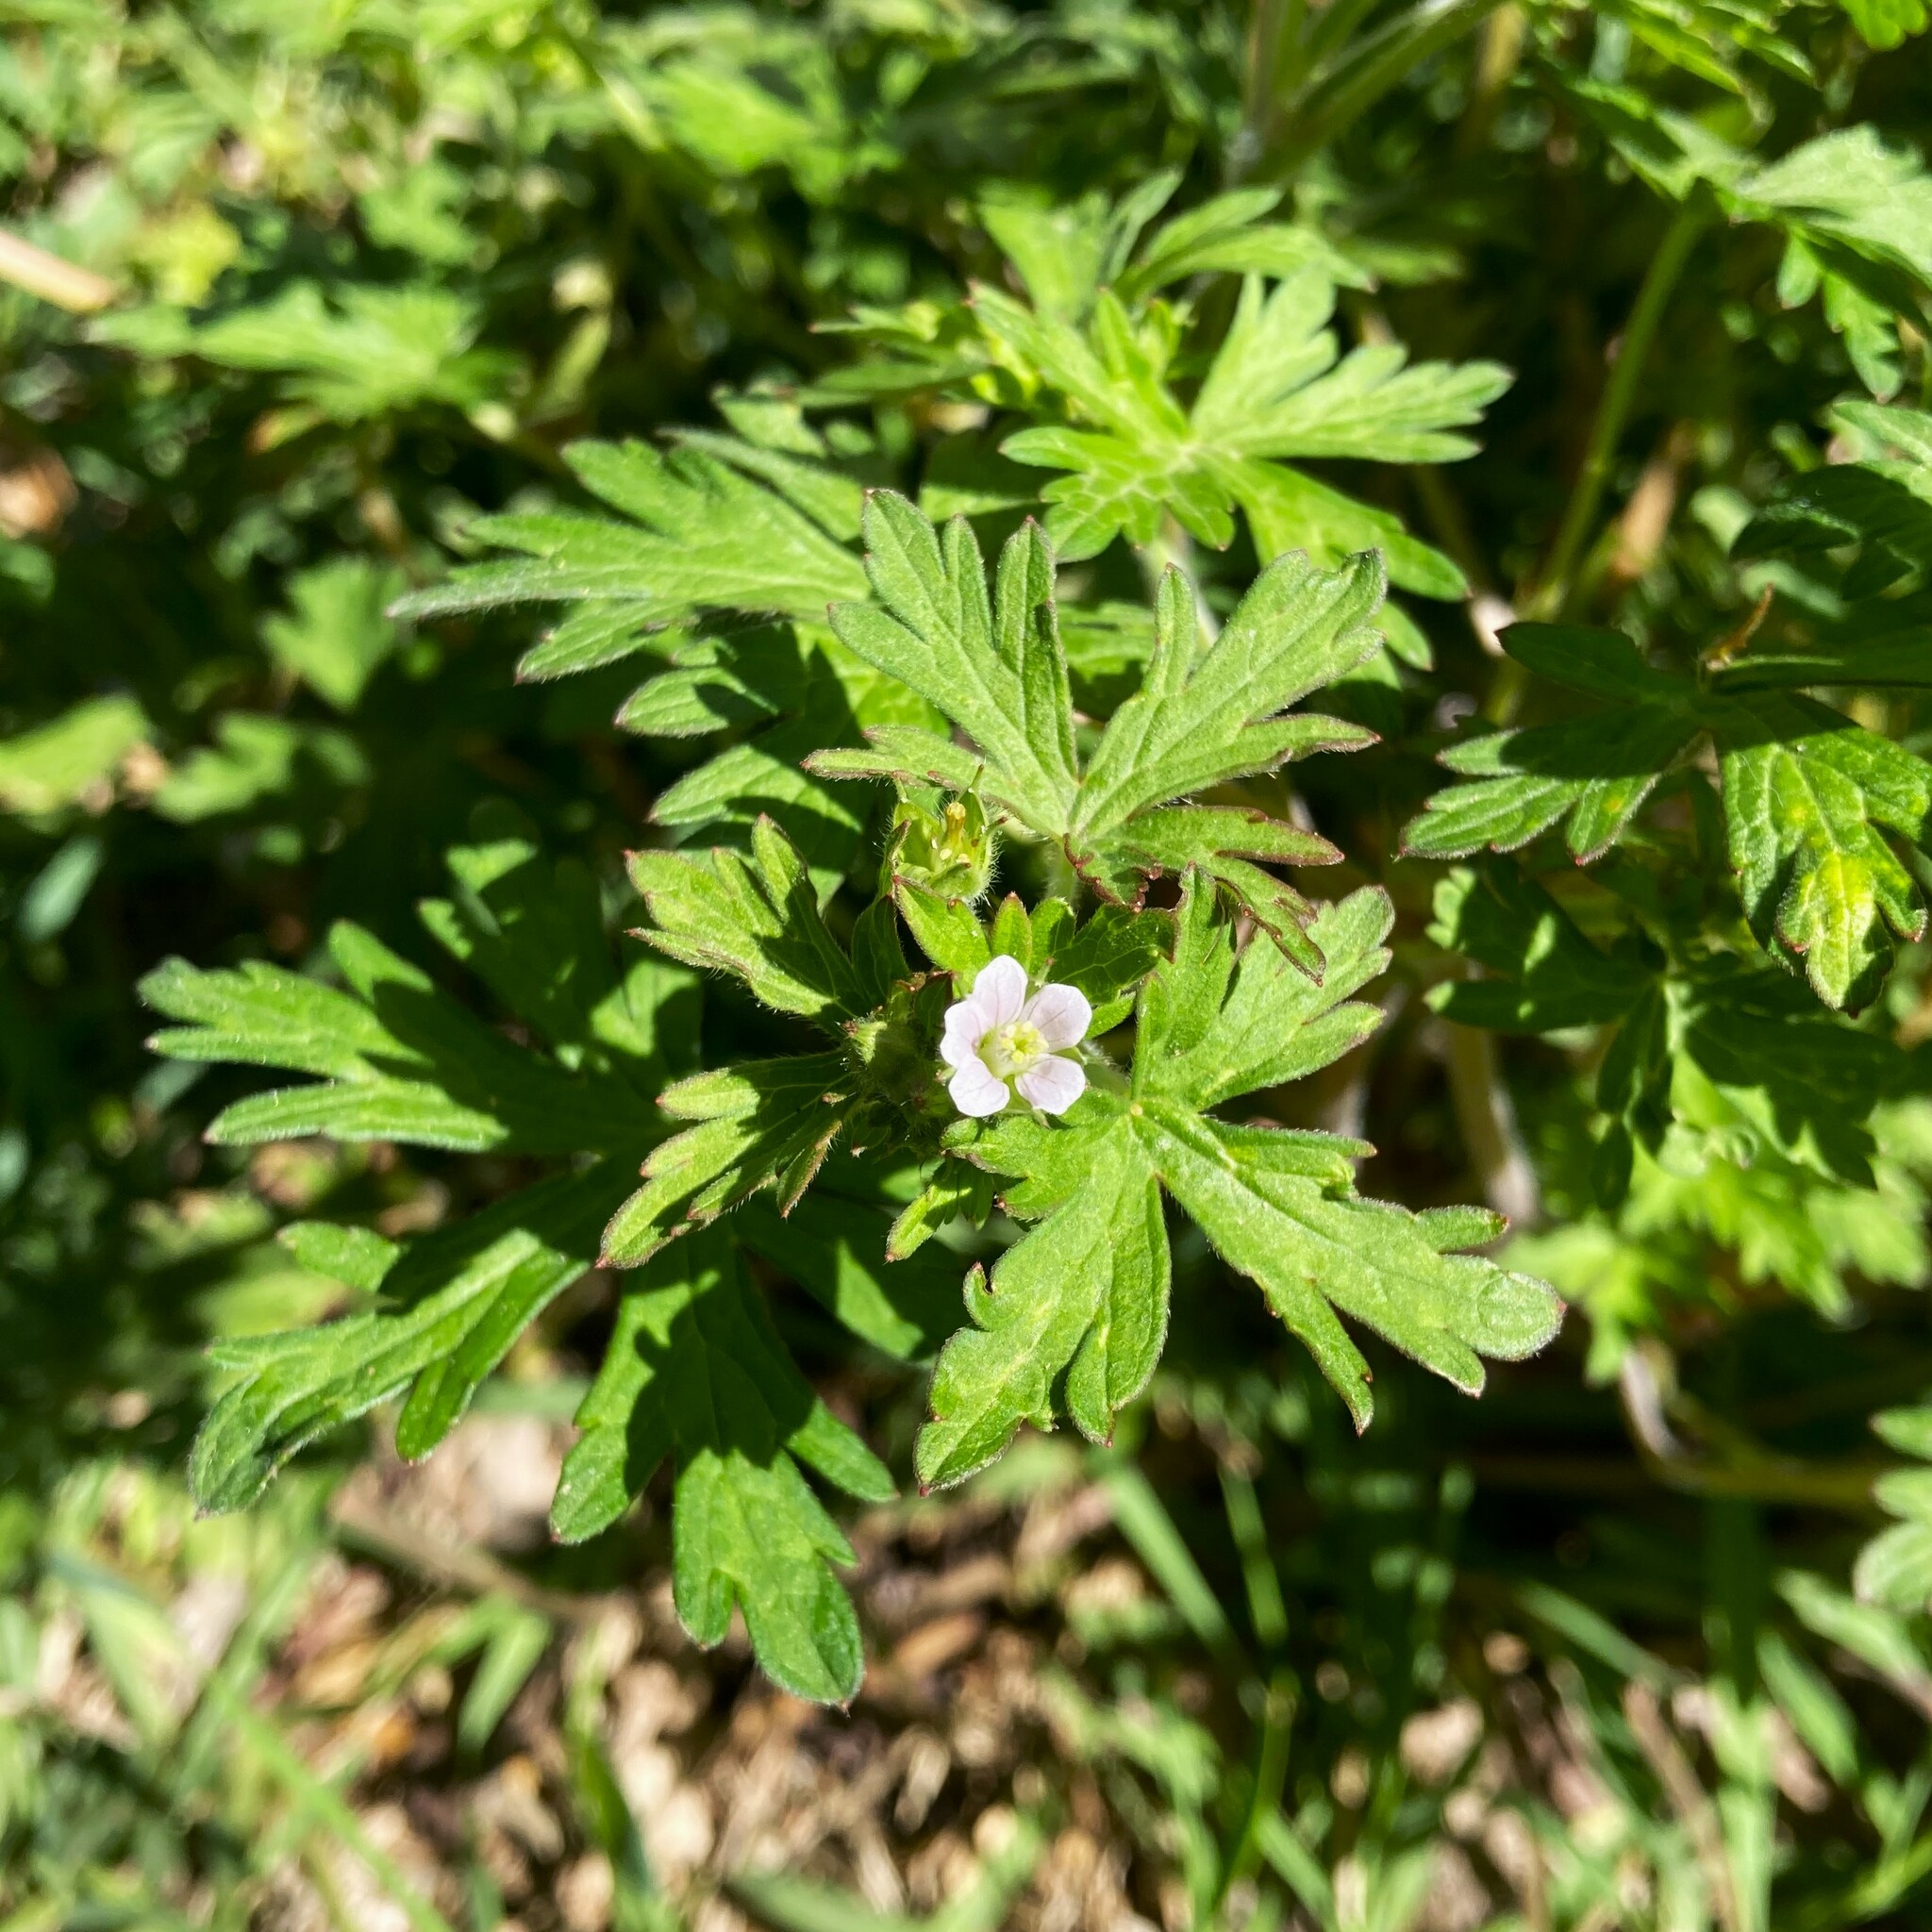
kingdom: Plantae
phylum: Tracheophyta
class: Magnoliopsida
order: Geraniales
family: Geraniaceae
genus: Geranium
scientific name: Geranium carolinianum
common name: Carolina crane's-bill
